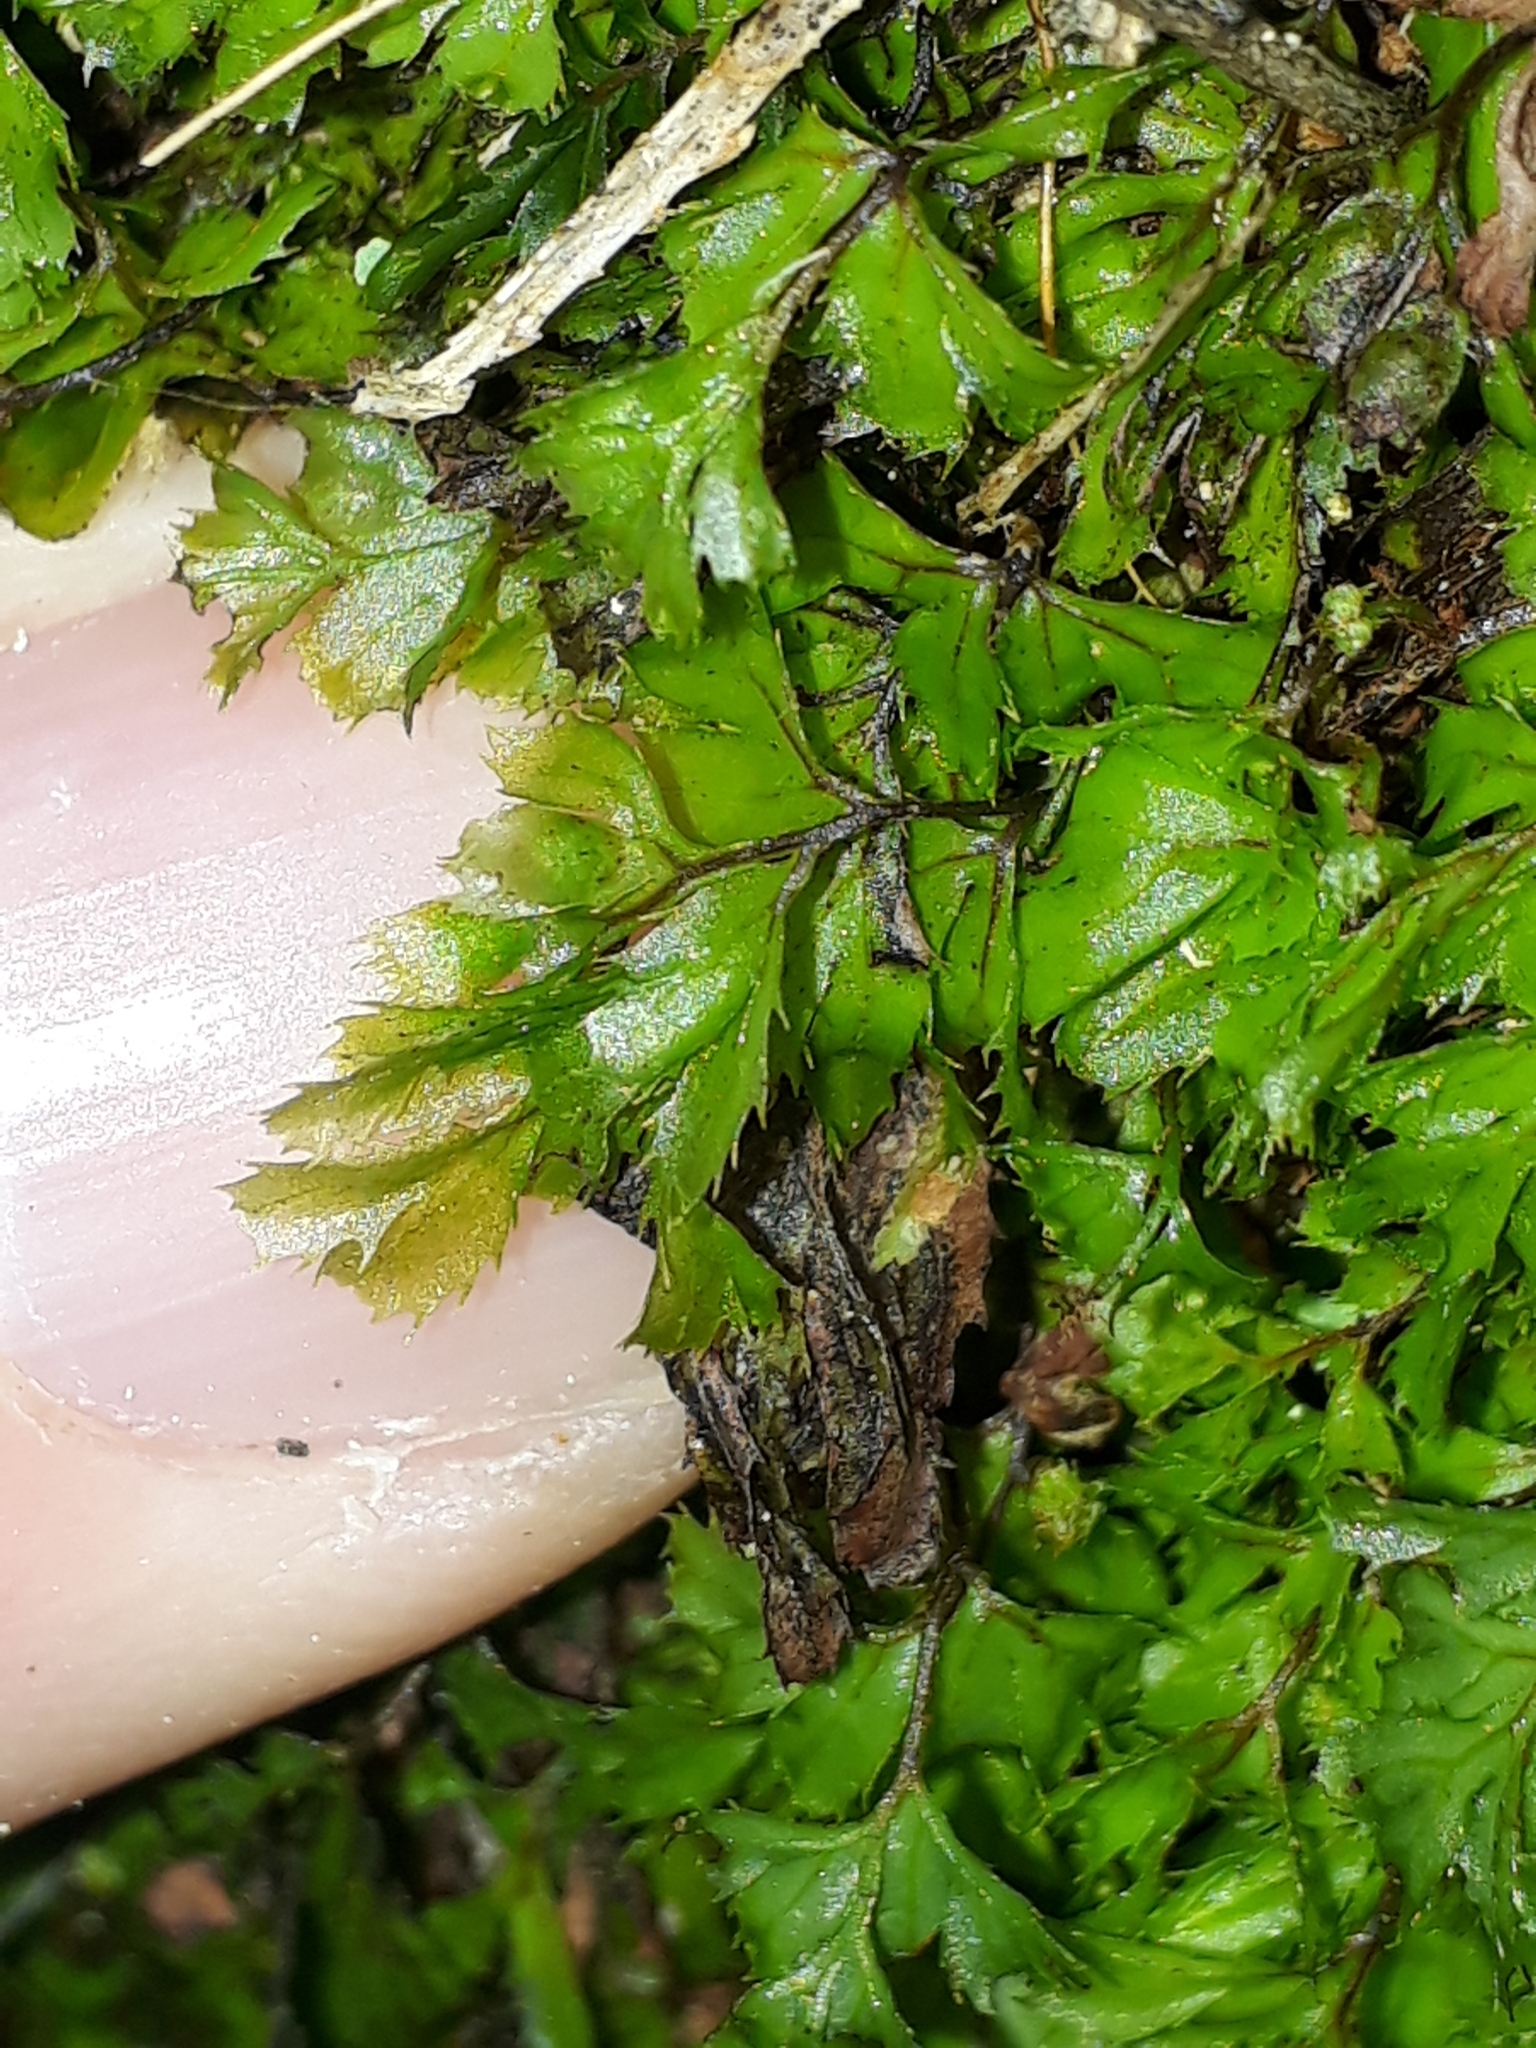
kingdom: Plantae
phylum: Tracheophyta
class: Polypodiopsida
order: Hymenophyllales
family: Hymenophyllaceae
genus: Hymenophyllum
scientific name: Hymenophyllum revolutum
